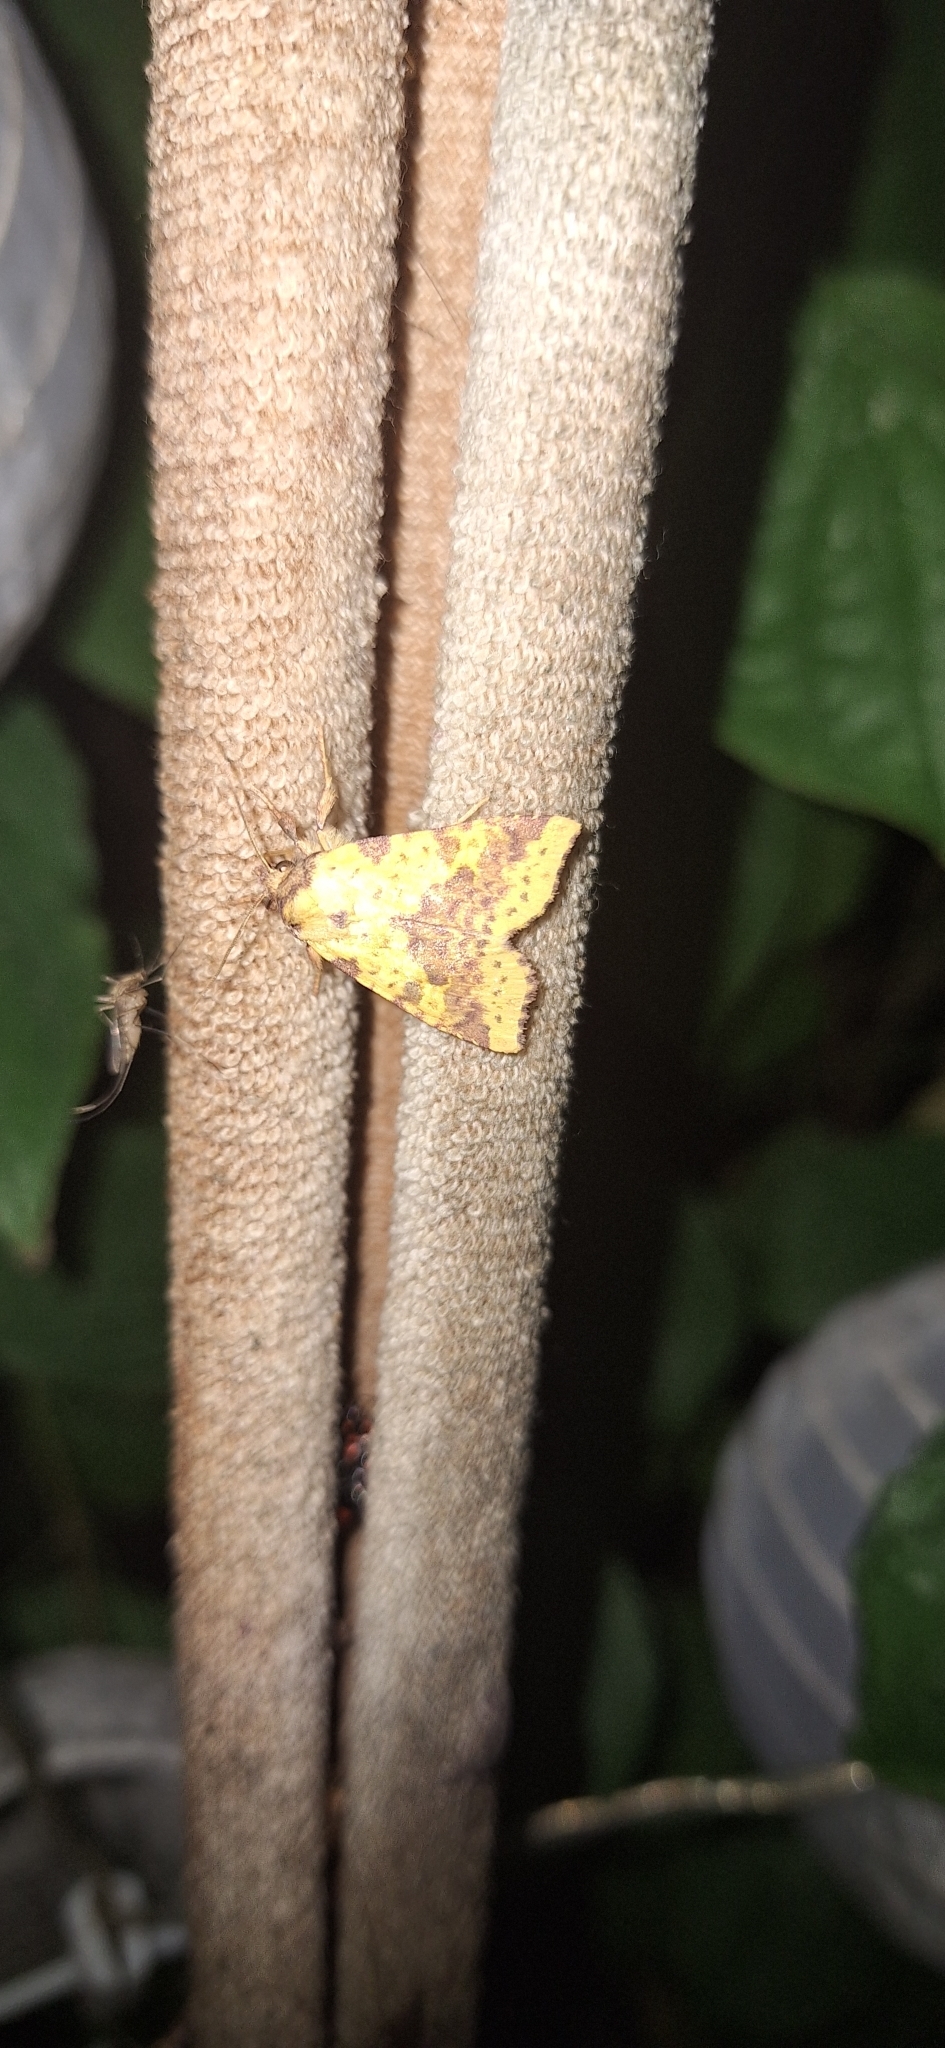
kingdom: Animalia
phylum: Arthropoda
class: Insecta
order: Lepidoptera
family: Noctuidae
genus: Xanthia
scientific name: Xanthia togata
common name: Pink-barred sallow
